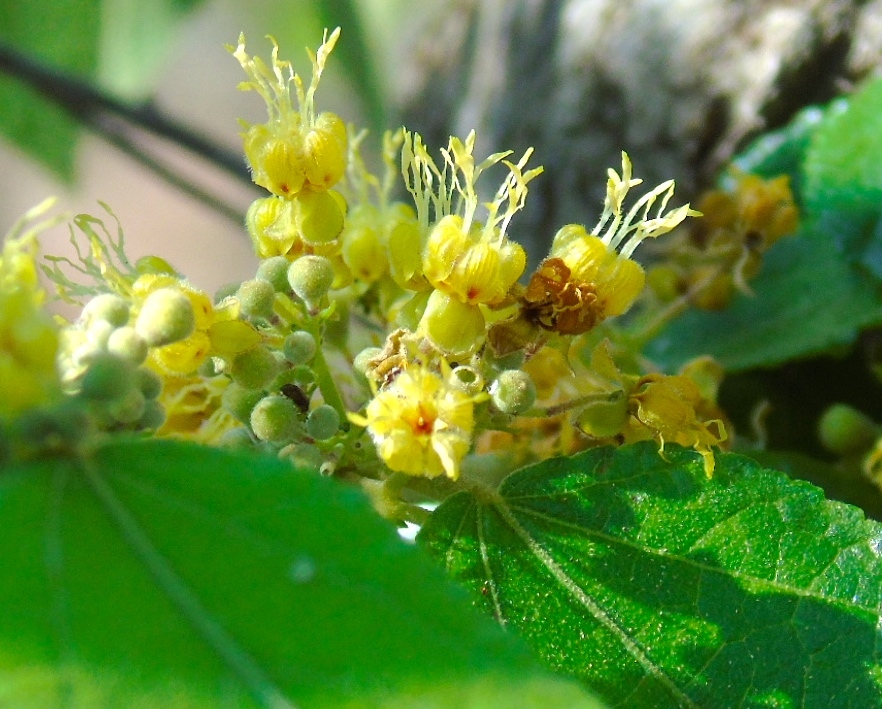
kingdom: Plantae
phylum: Tracheophyta
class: Magnoliopsida
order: Malvales
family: Malvaceae
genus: Guazuma
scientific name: Guazuma ulmifolia
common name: Bastard-cedar
